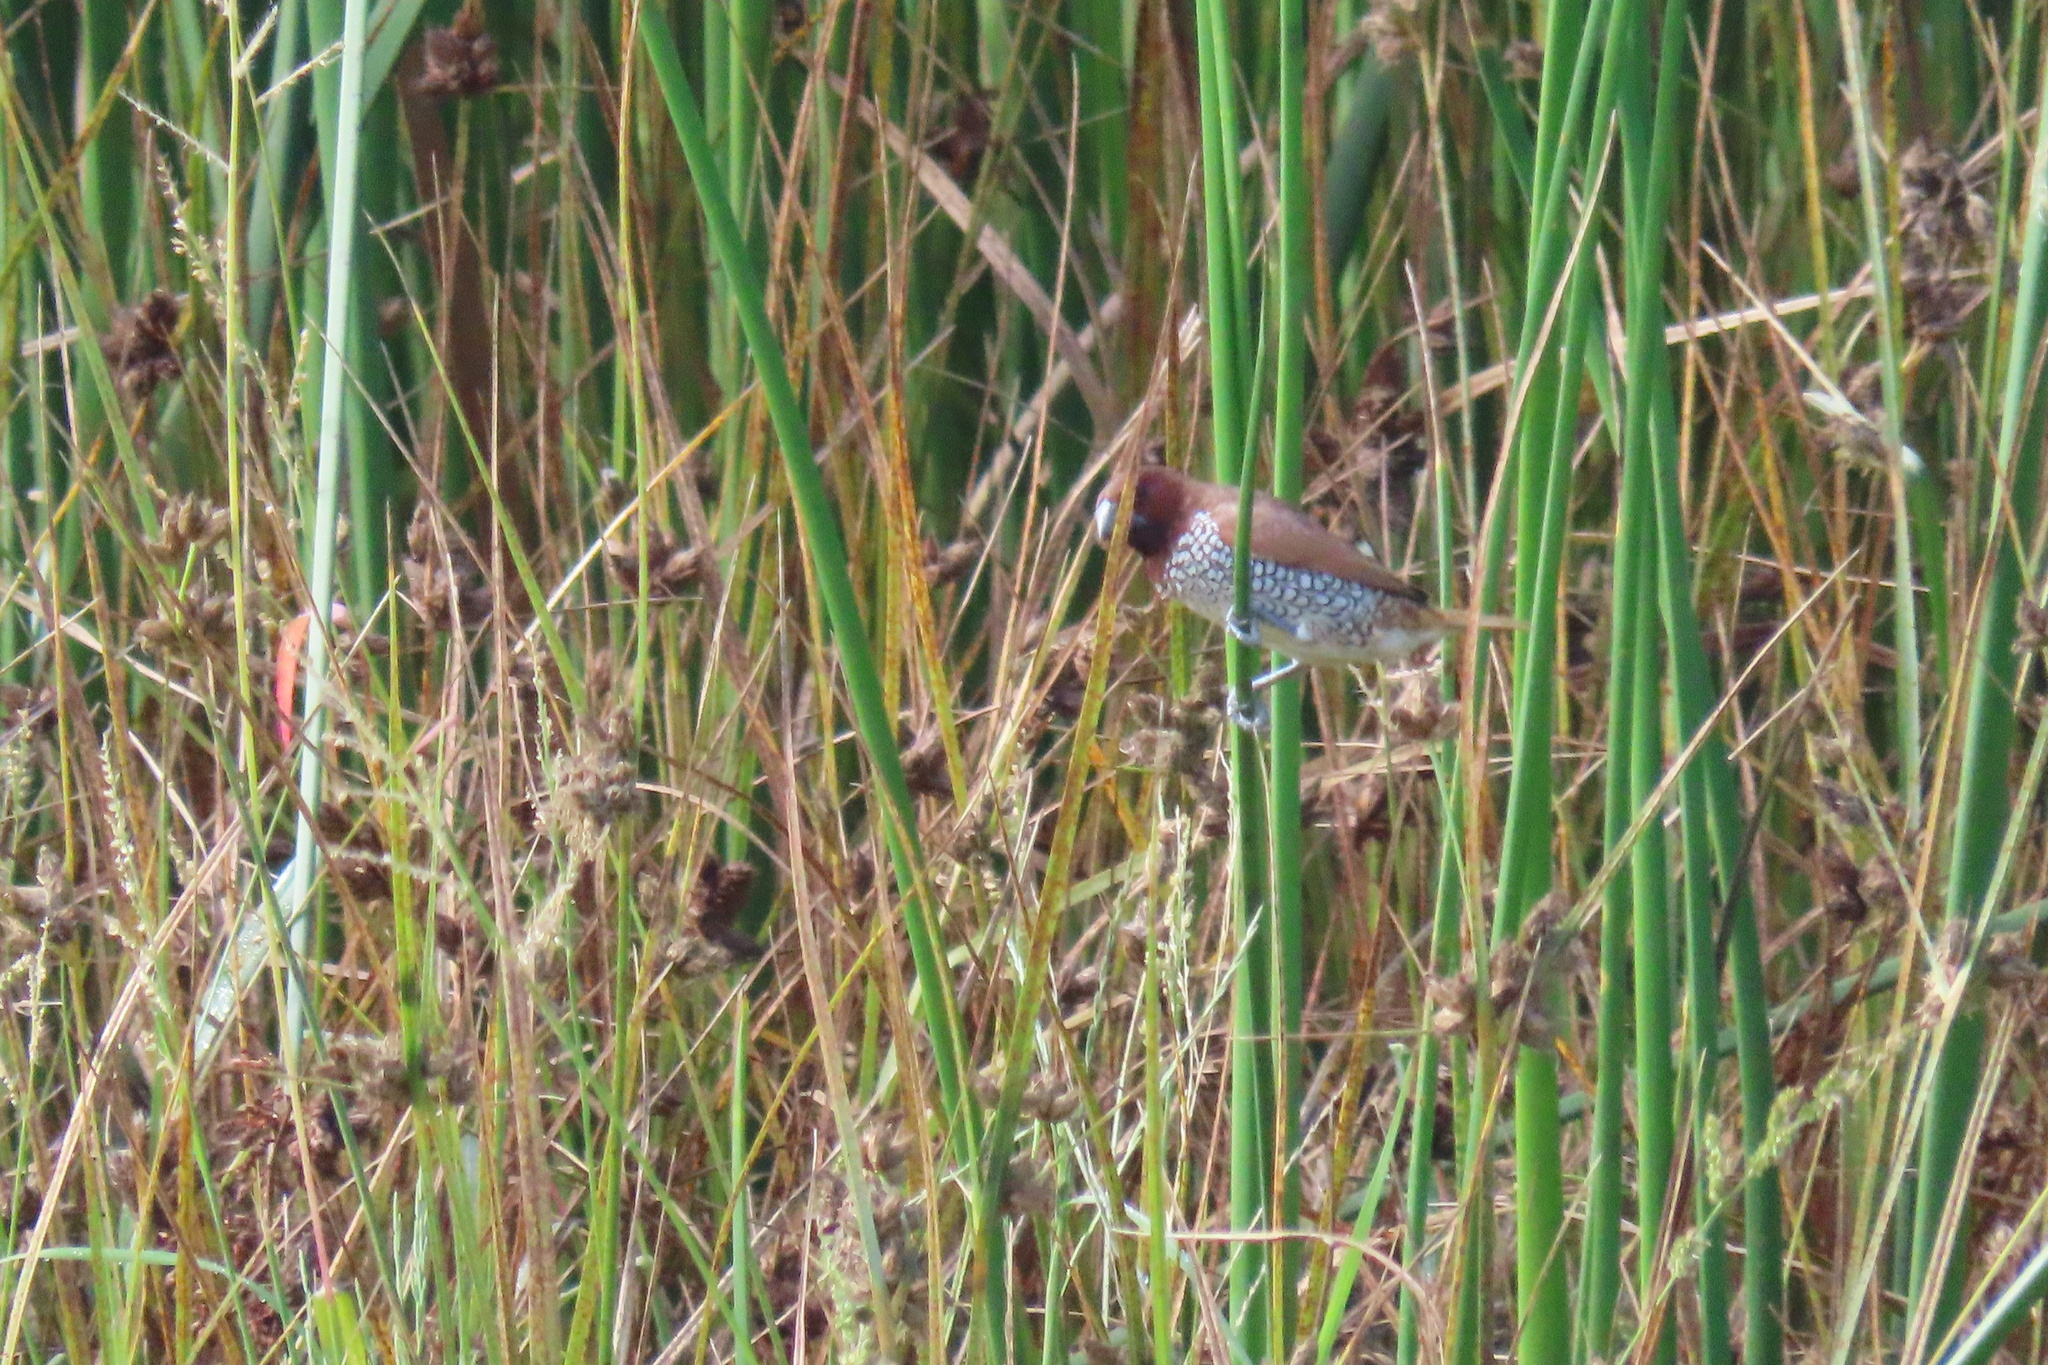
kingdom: Animalia
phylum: Chordata
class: Aves
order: Passeriformes
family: Estrildidae
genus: Lonchura
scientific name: Lonchura punctulata
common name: Scaly-breasted munia
